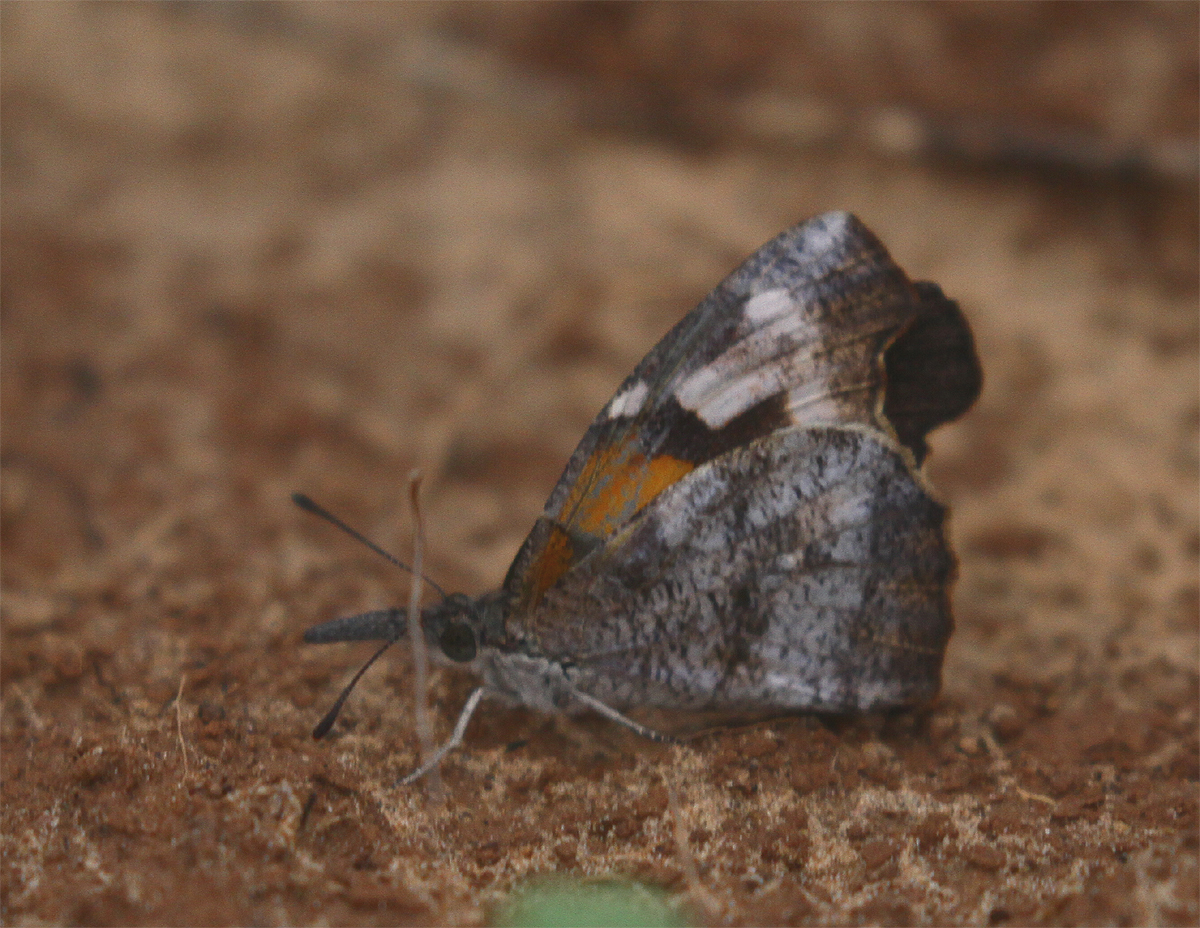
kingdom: Animalia
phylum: Arthropoda
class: Insecta
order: Lepidoptera
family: Nymphalidae
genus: Libytheana
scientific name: Libytheana carinenta
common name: American snout
